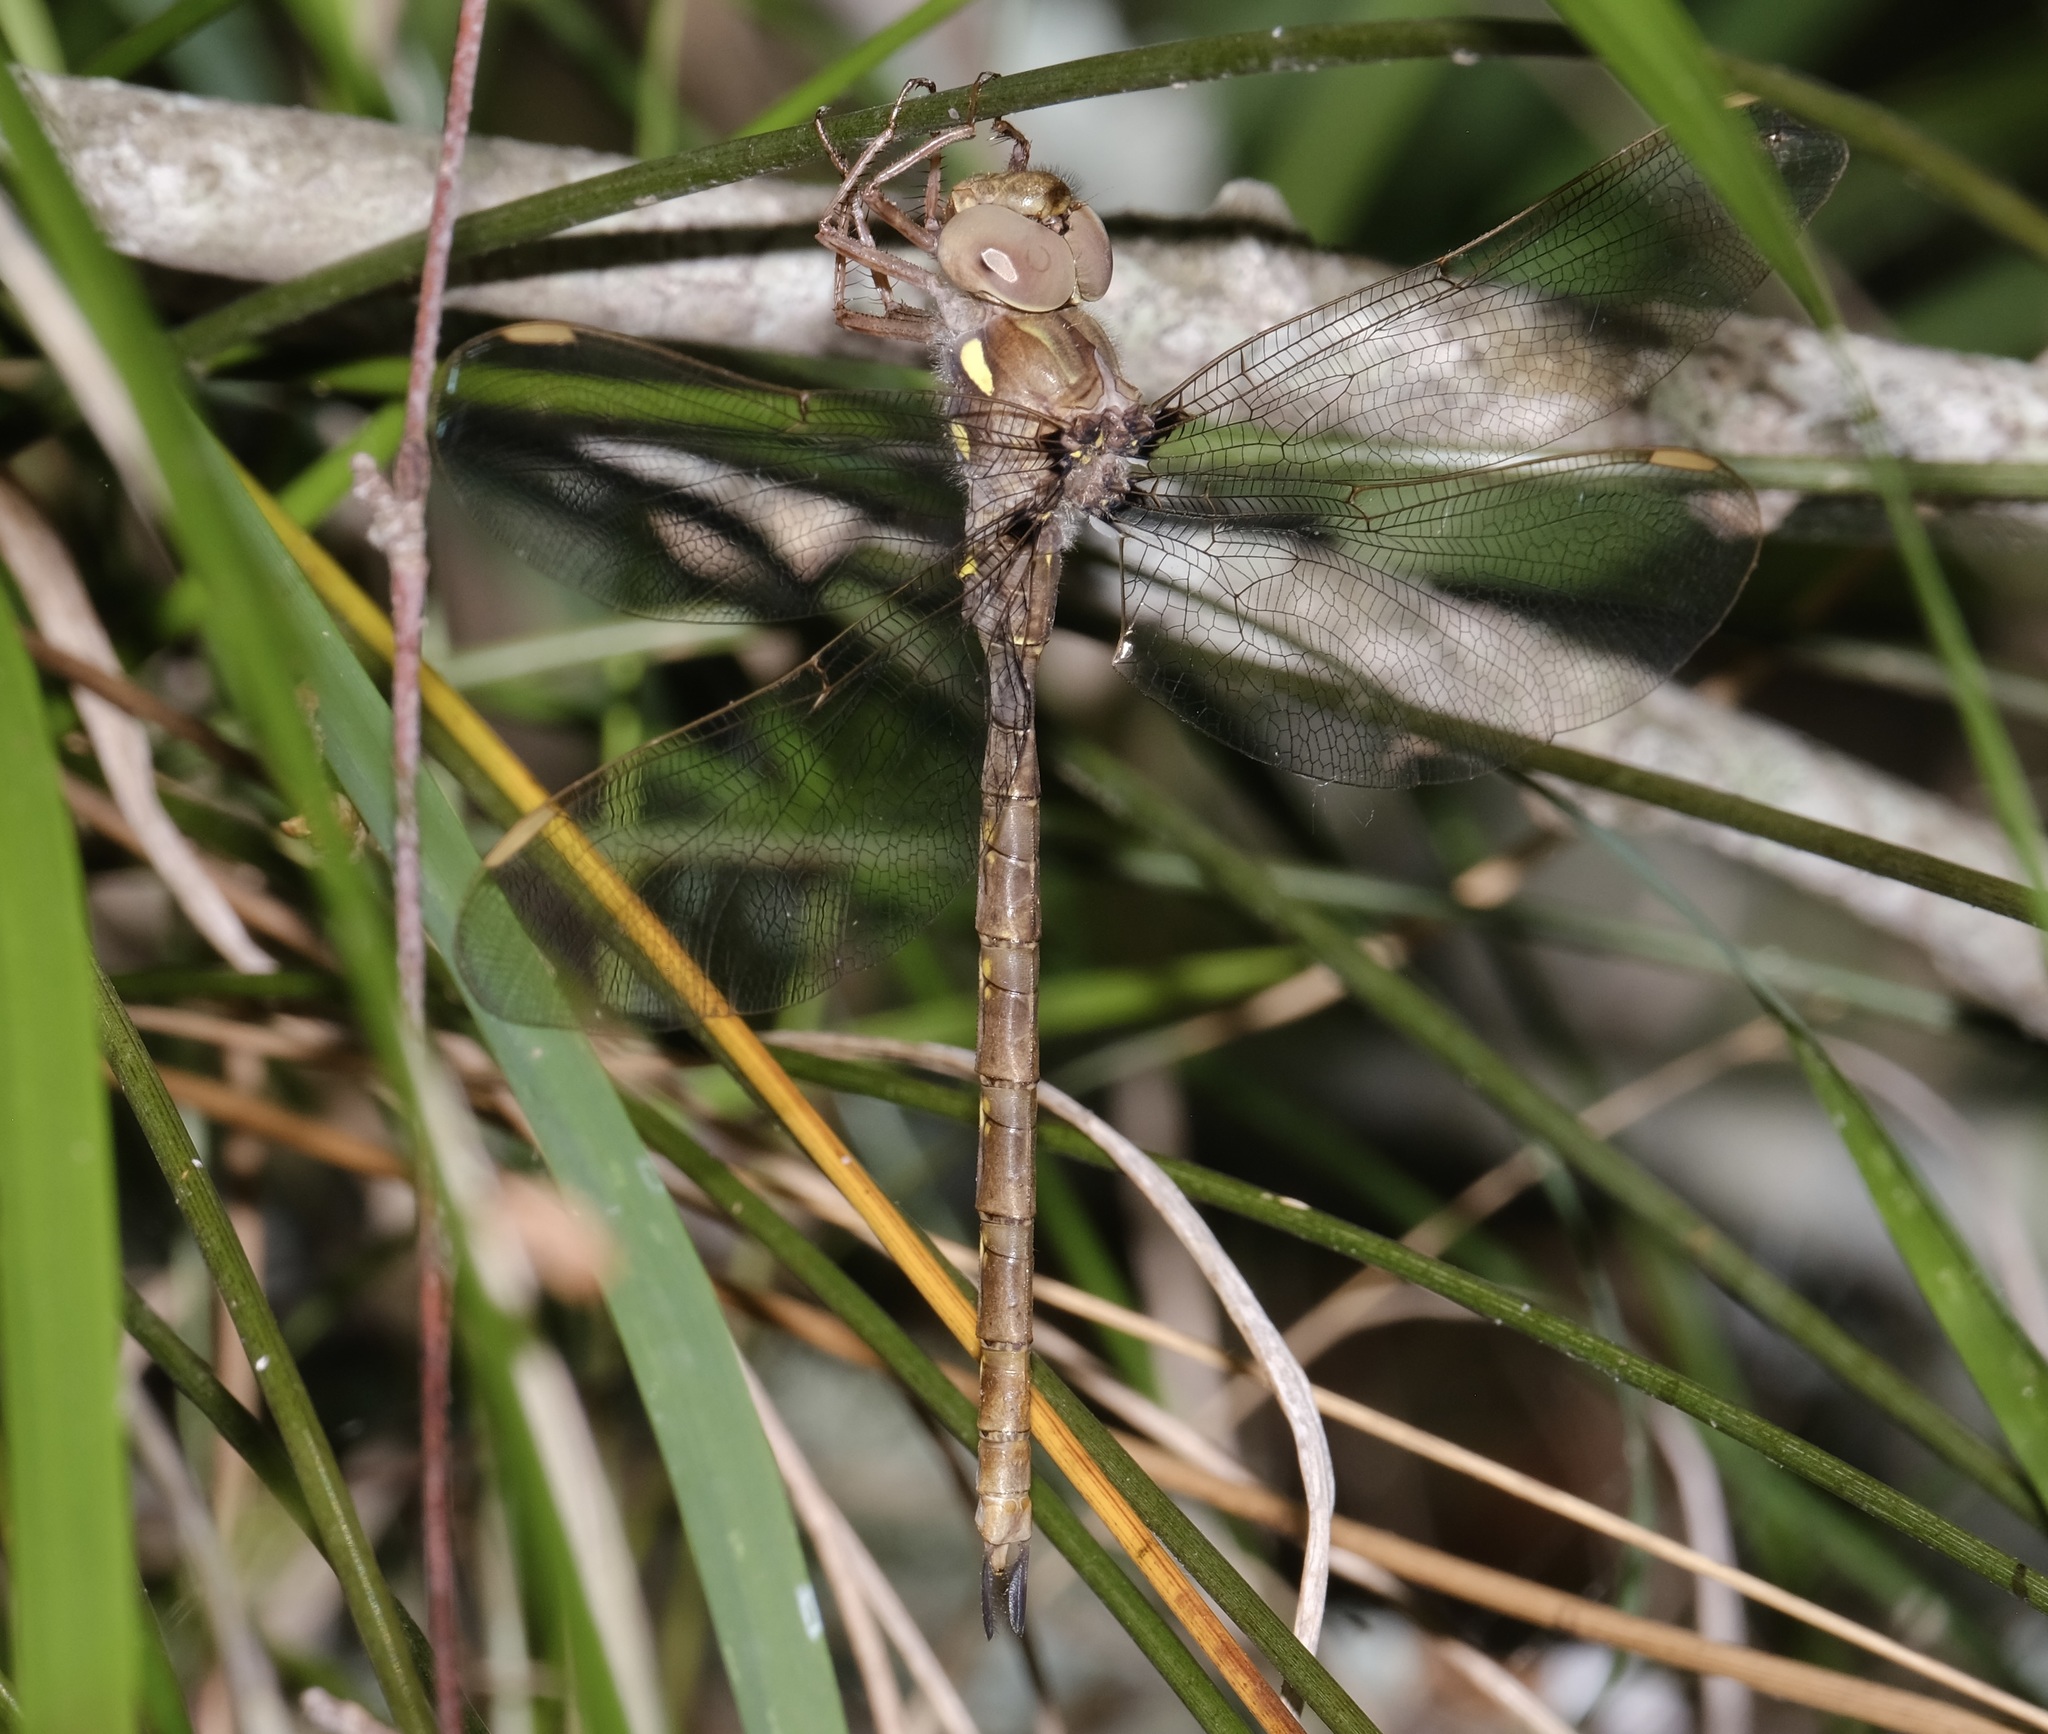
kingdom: Animalia
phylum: Arthropoda
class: Insecta
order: Odonata
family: Aeshnidae
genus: Boyeria
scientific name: Boyeria vinosa
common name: Fawn darner
